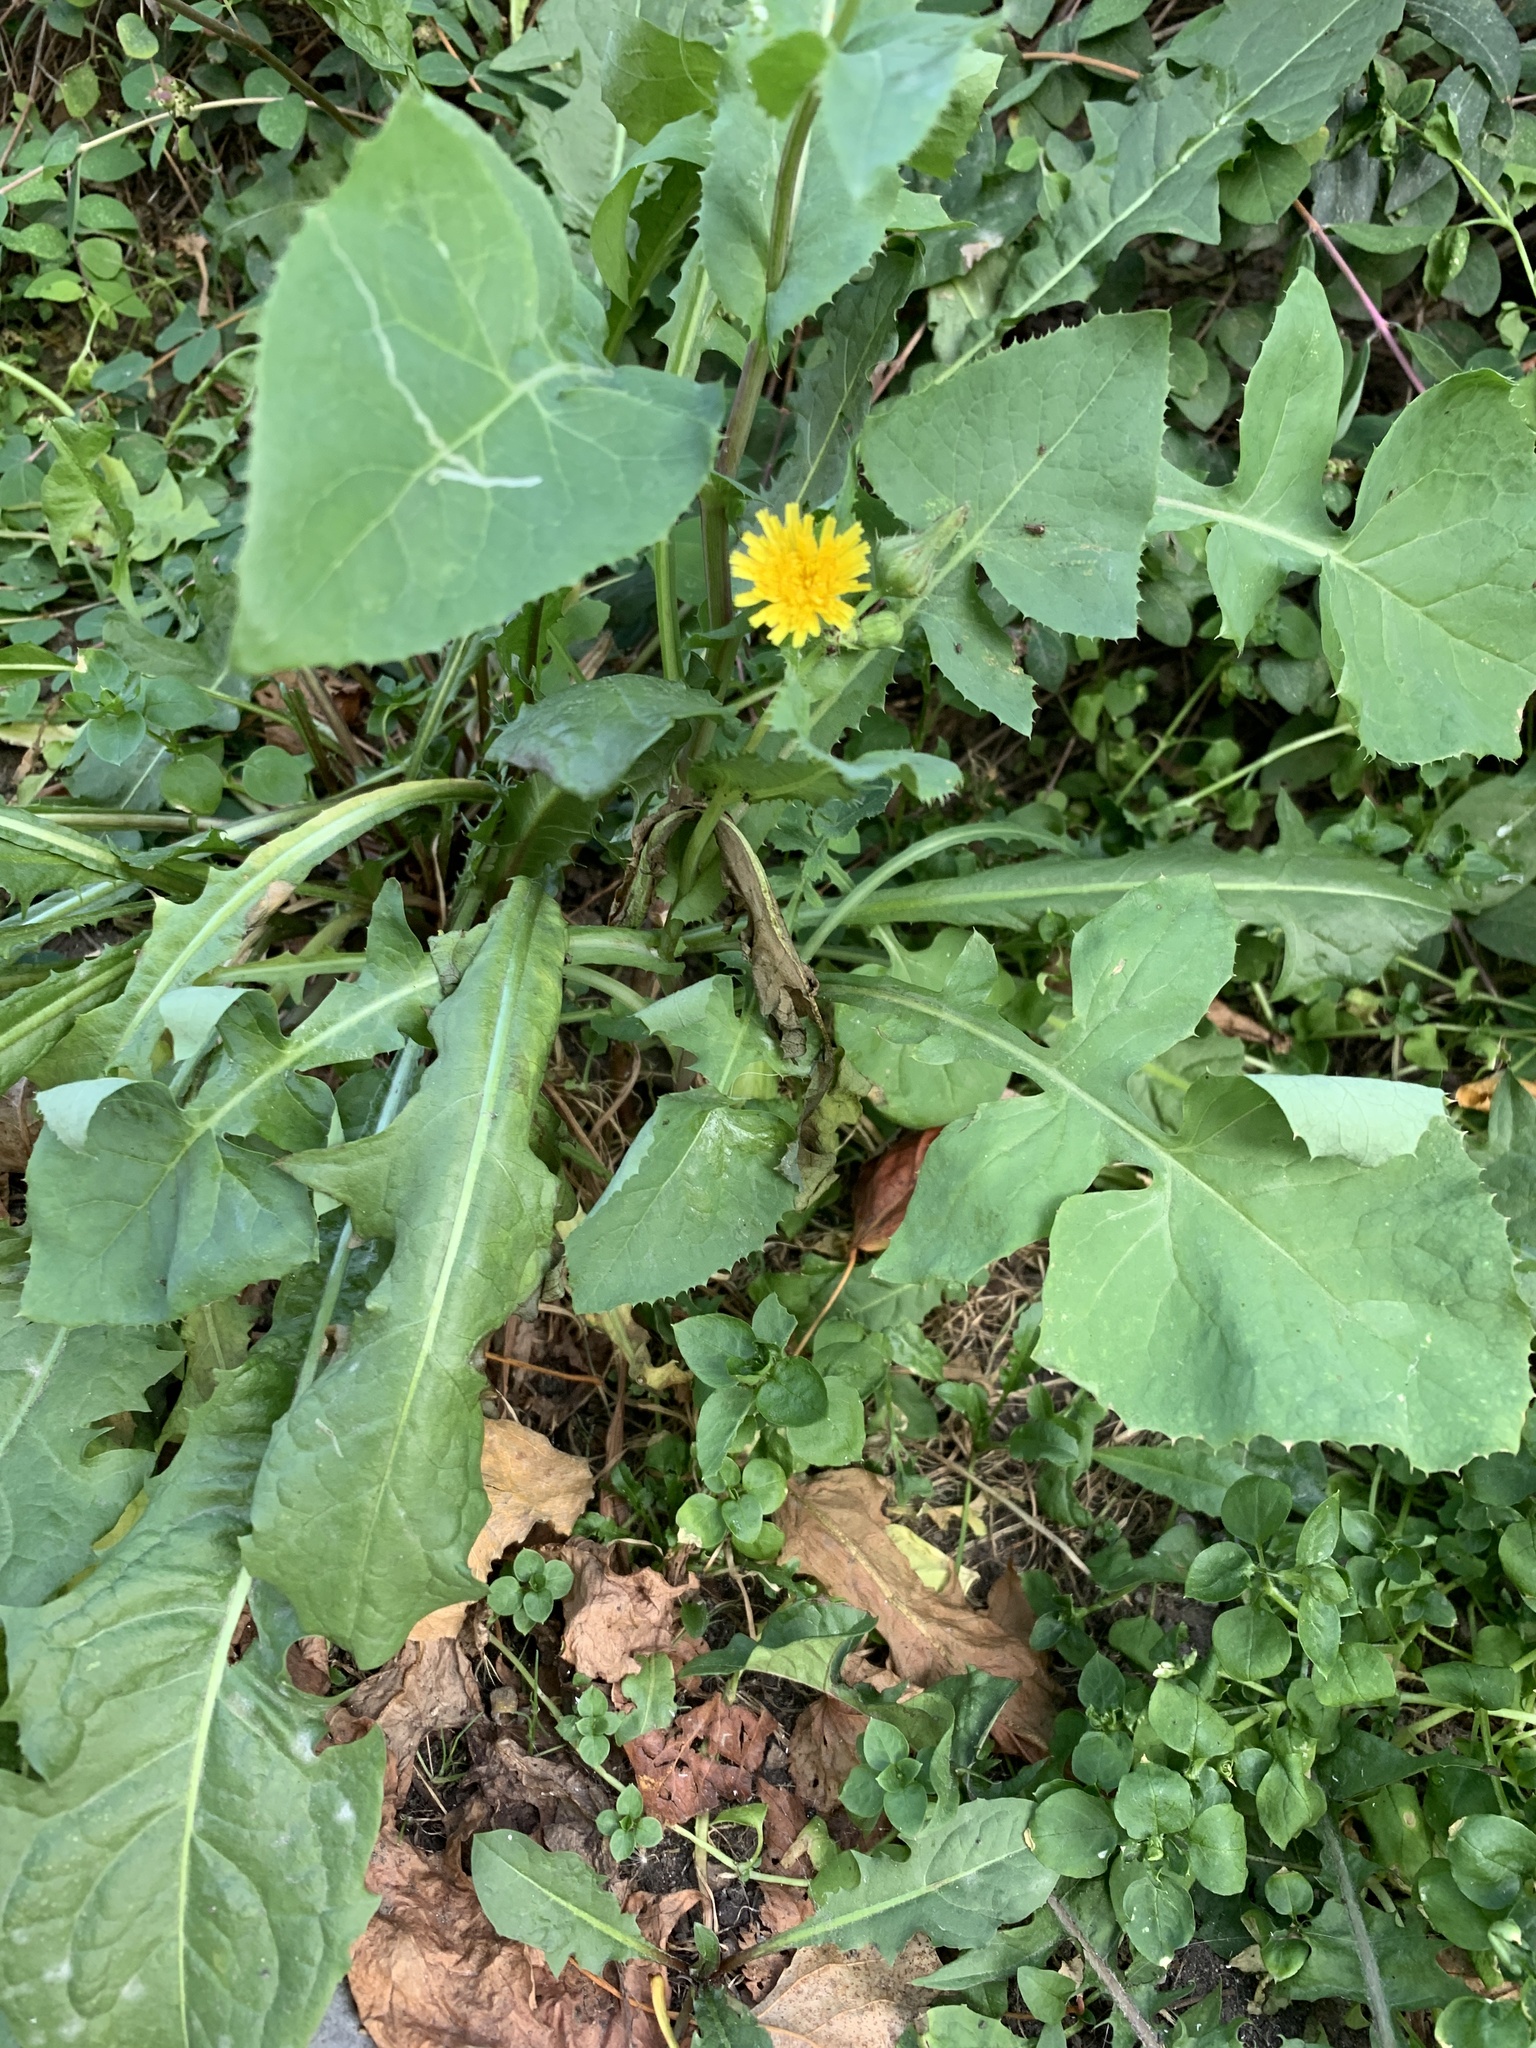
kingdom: Plantae
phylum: Tracheophyta
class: Magnoliopsida
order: Asterales
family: Asteraceae
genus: Sonchus
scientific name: Sonchus oleraceus
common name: Common sowthistle
